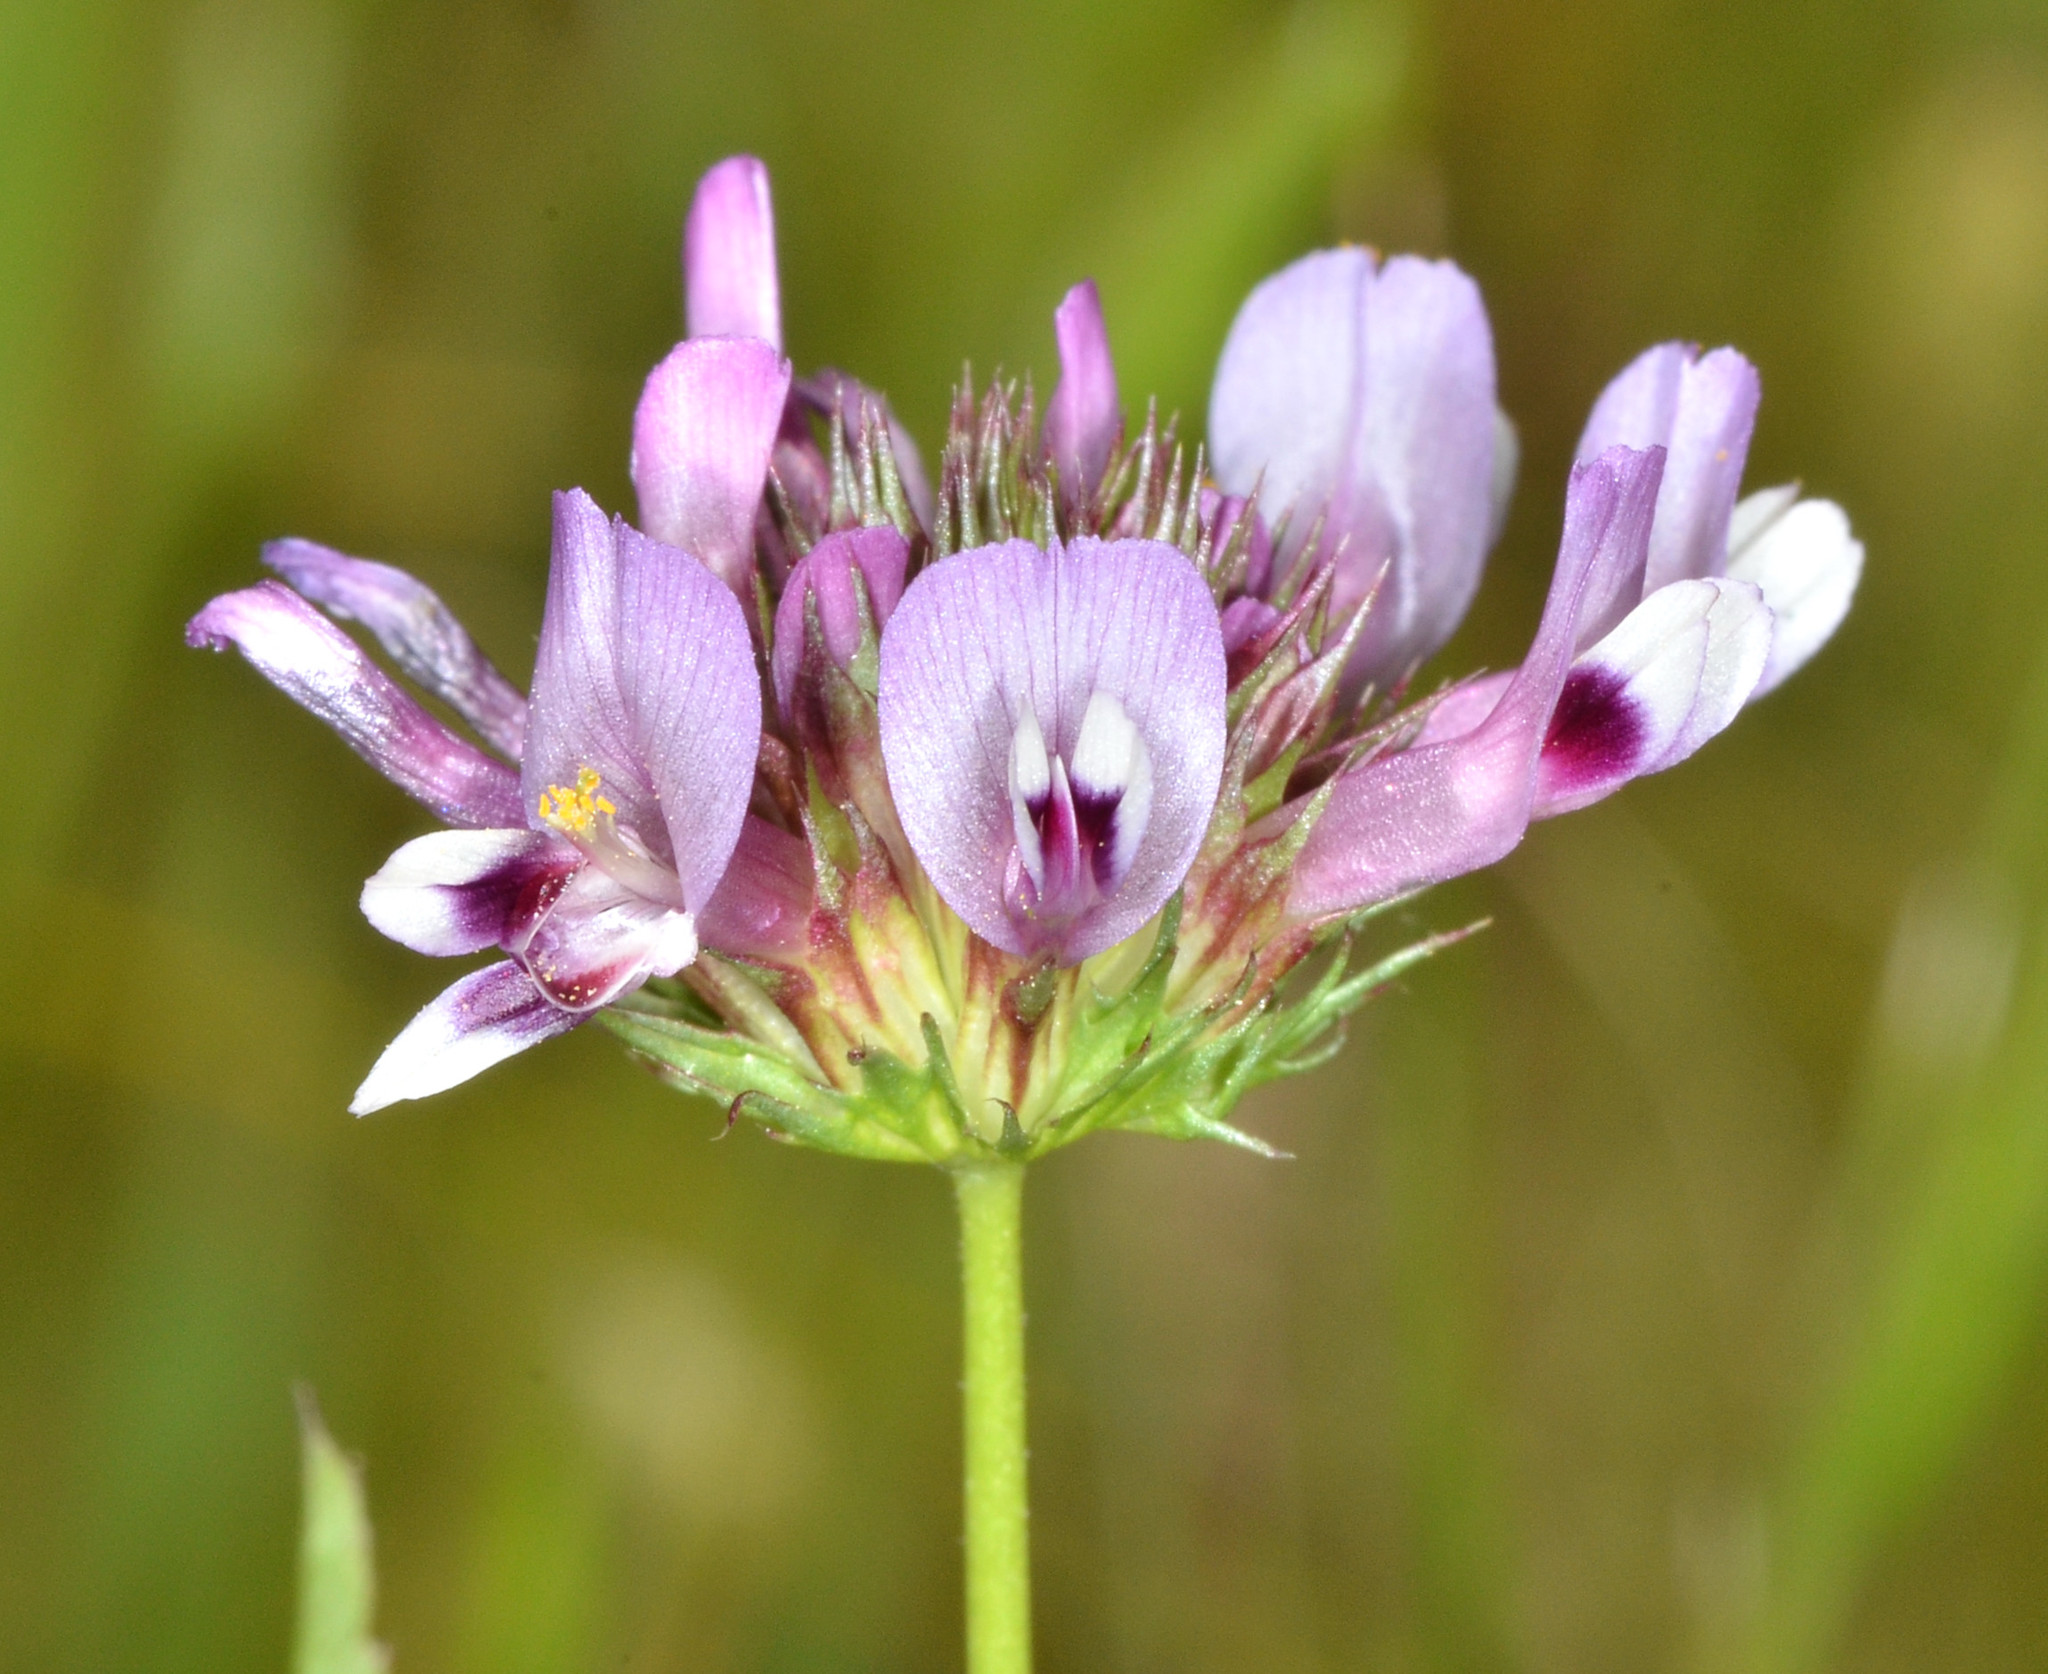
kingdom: Plantae
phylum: Tracheophyta
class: Magnoliopsida
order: Fabales
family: Fabaceae
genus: Trifolium
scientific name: Trifolium willdenovii
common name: Tomcat clover
